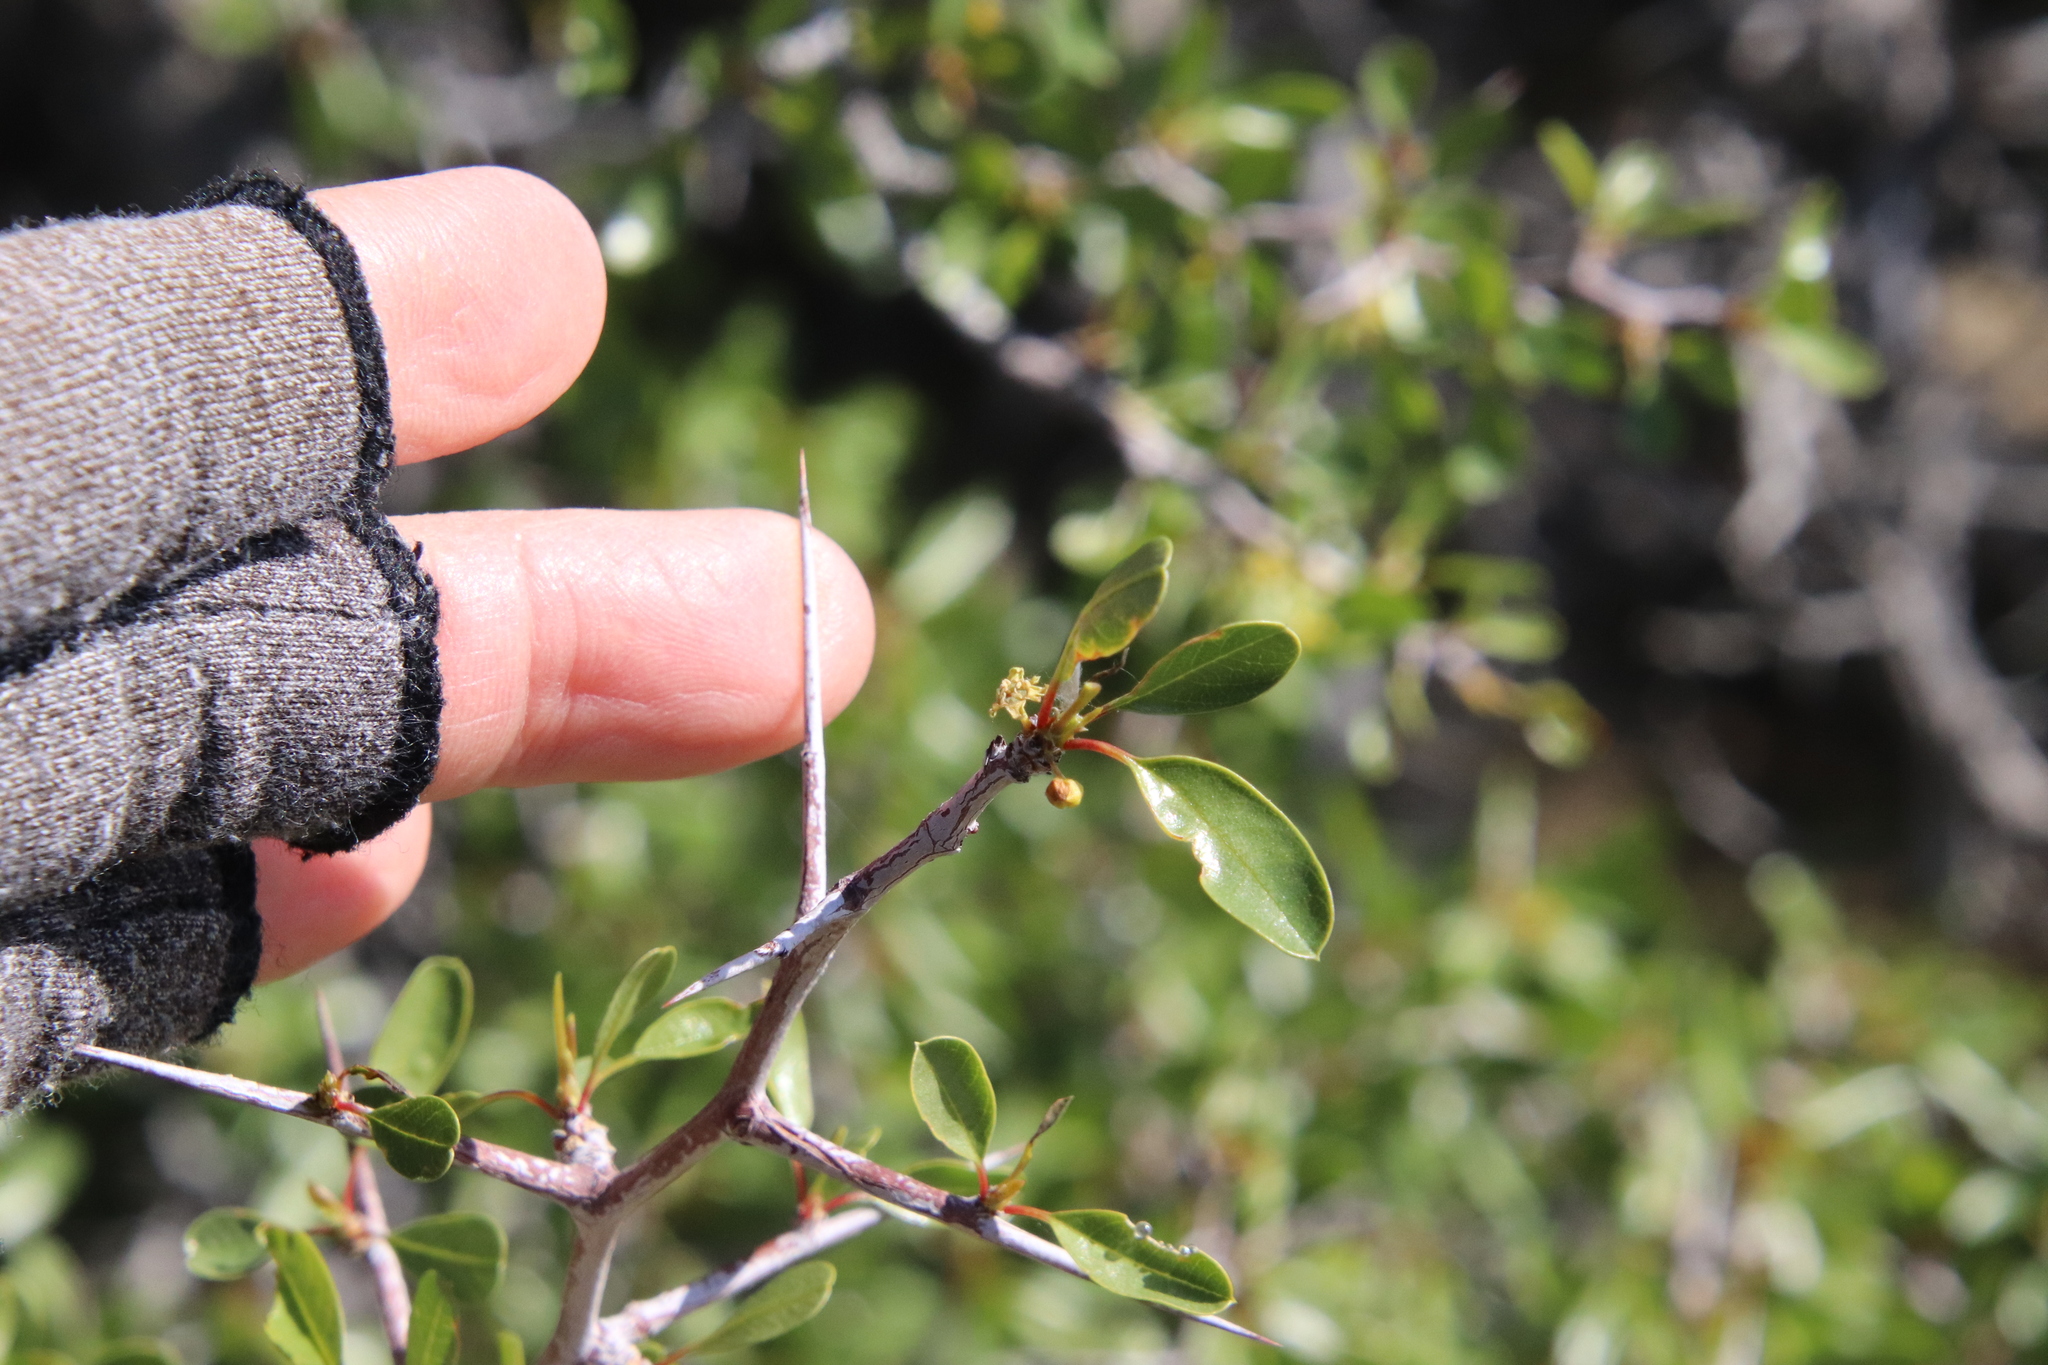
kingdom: Plantae
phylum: Tracheophyta
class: Magnoliopsida
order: Rosales
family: Rhamnaceae
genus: Pseudoziziphus
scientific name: Pseudoziziphus parryi
